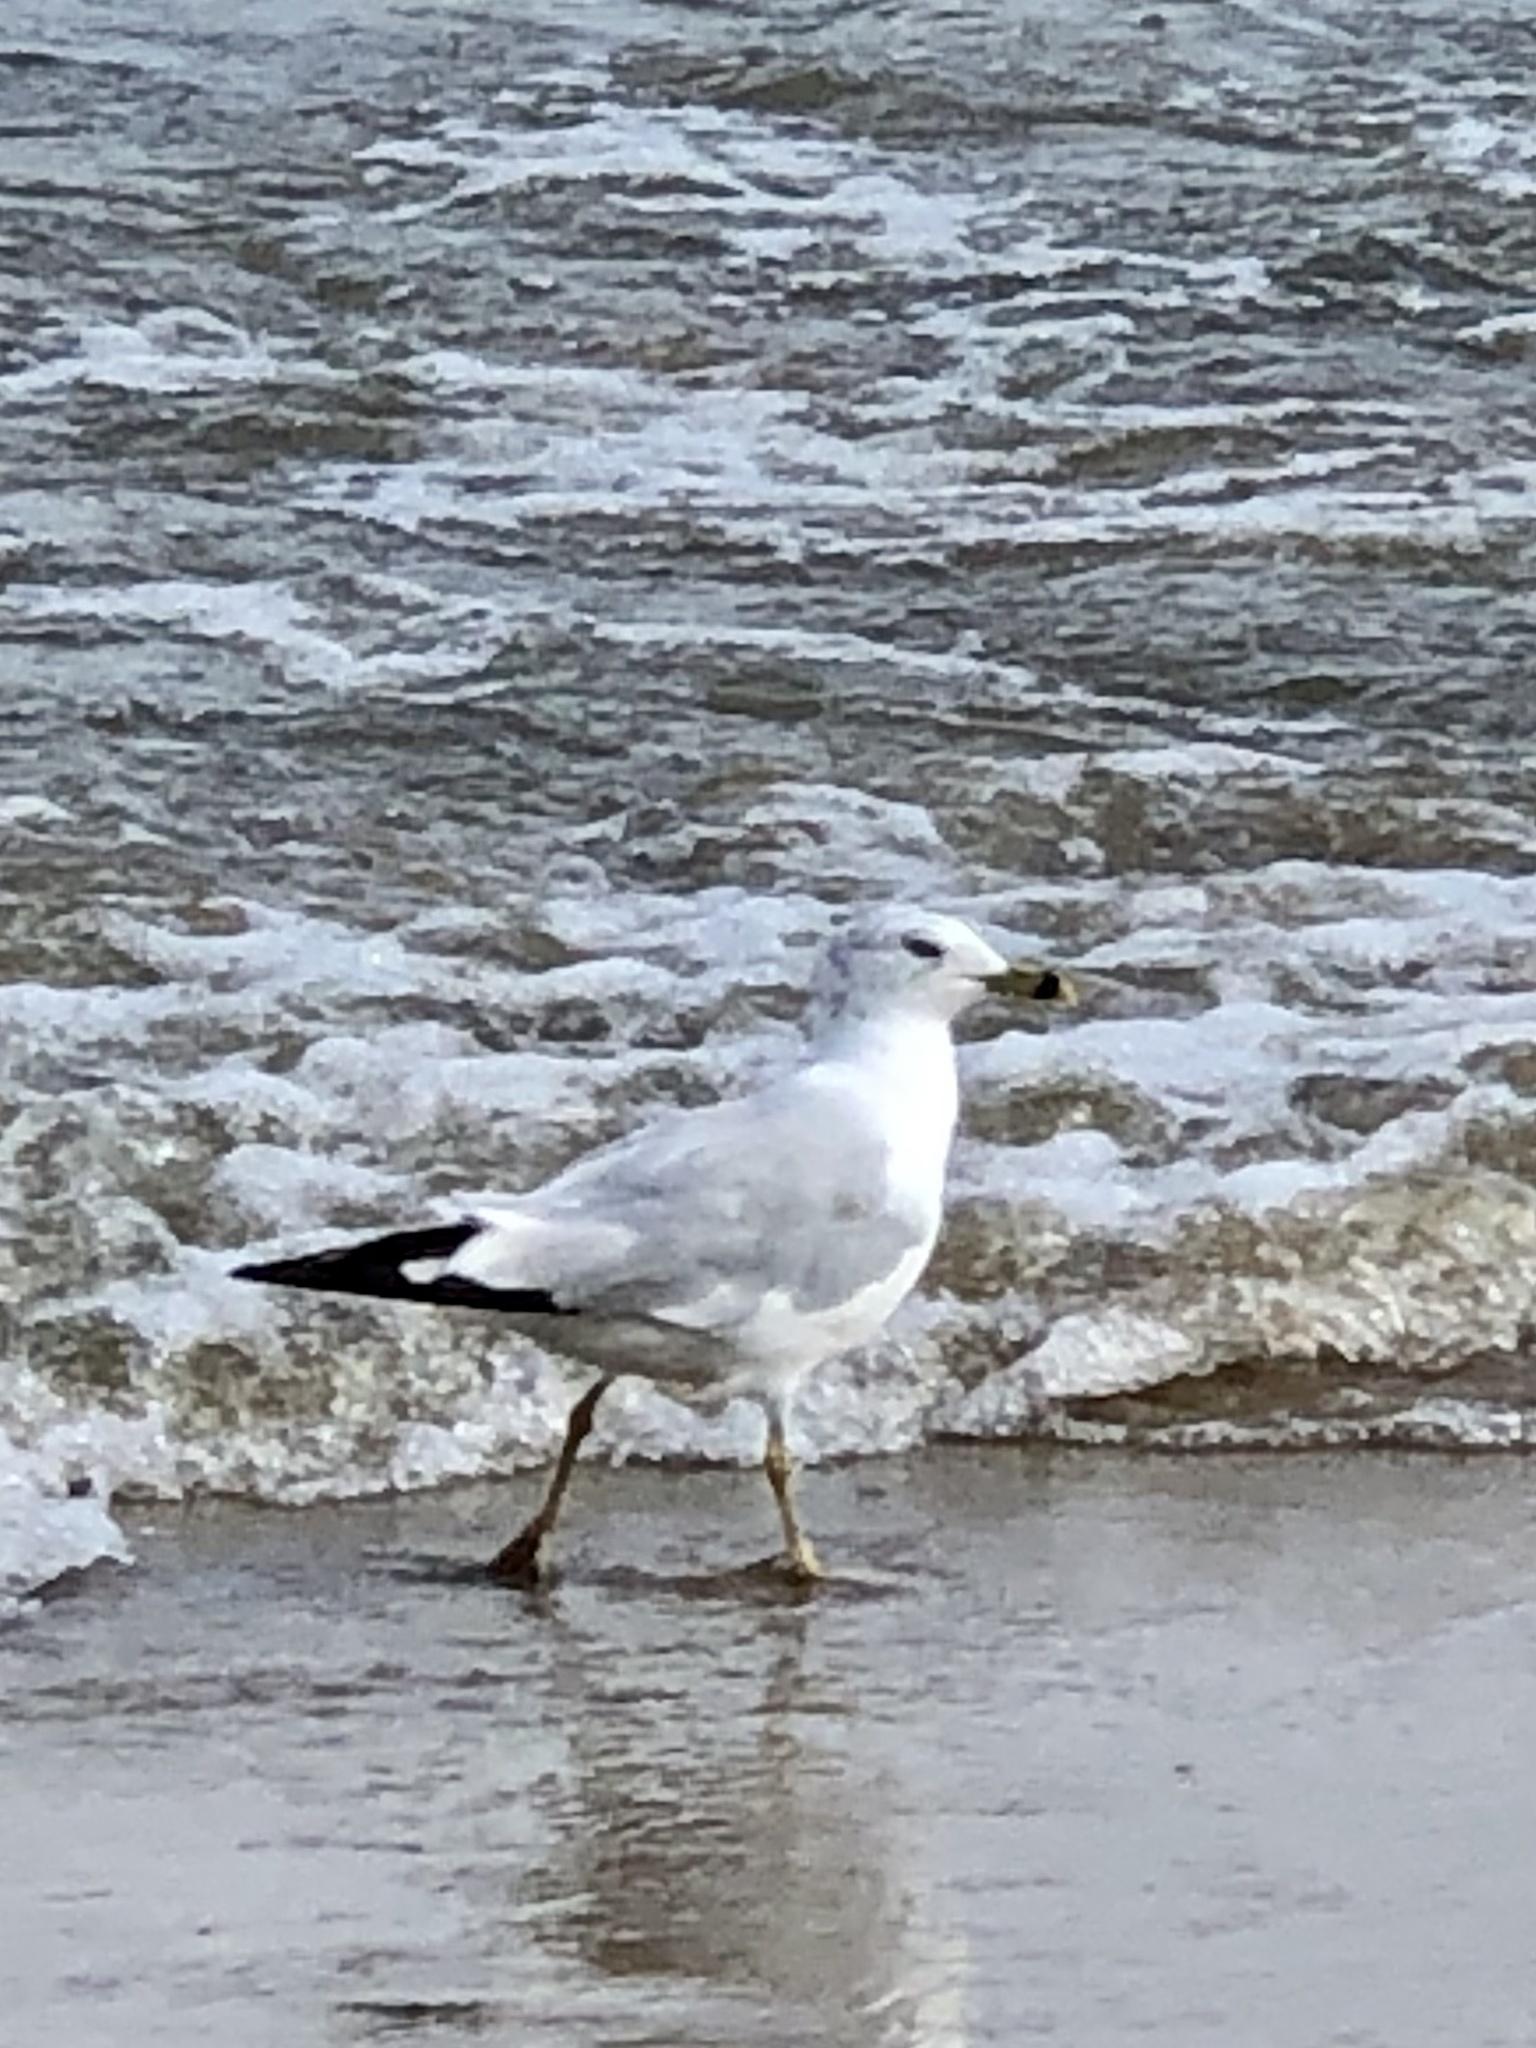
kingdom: Animalia
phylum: Chordata
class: Aves
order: Charadriiformes
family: Laridae
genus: Larus
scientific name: Larus delawarensis
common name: Ring-billed gull
